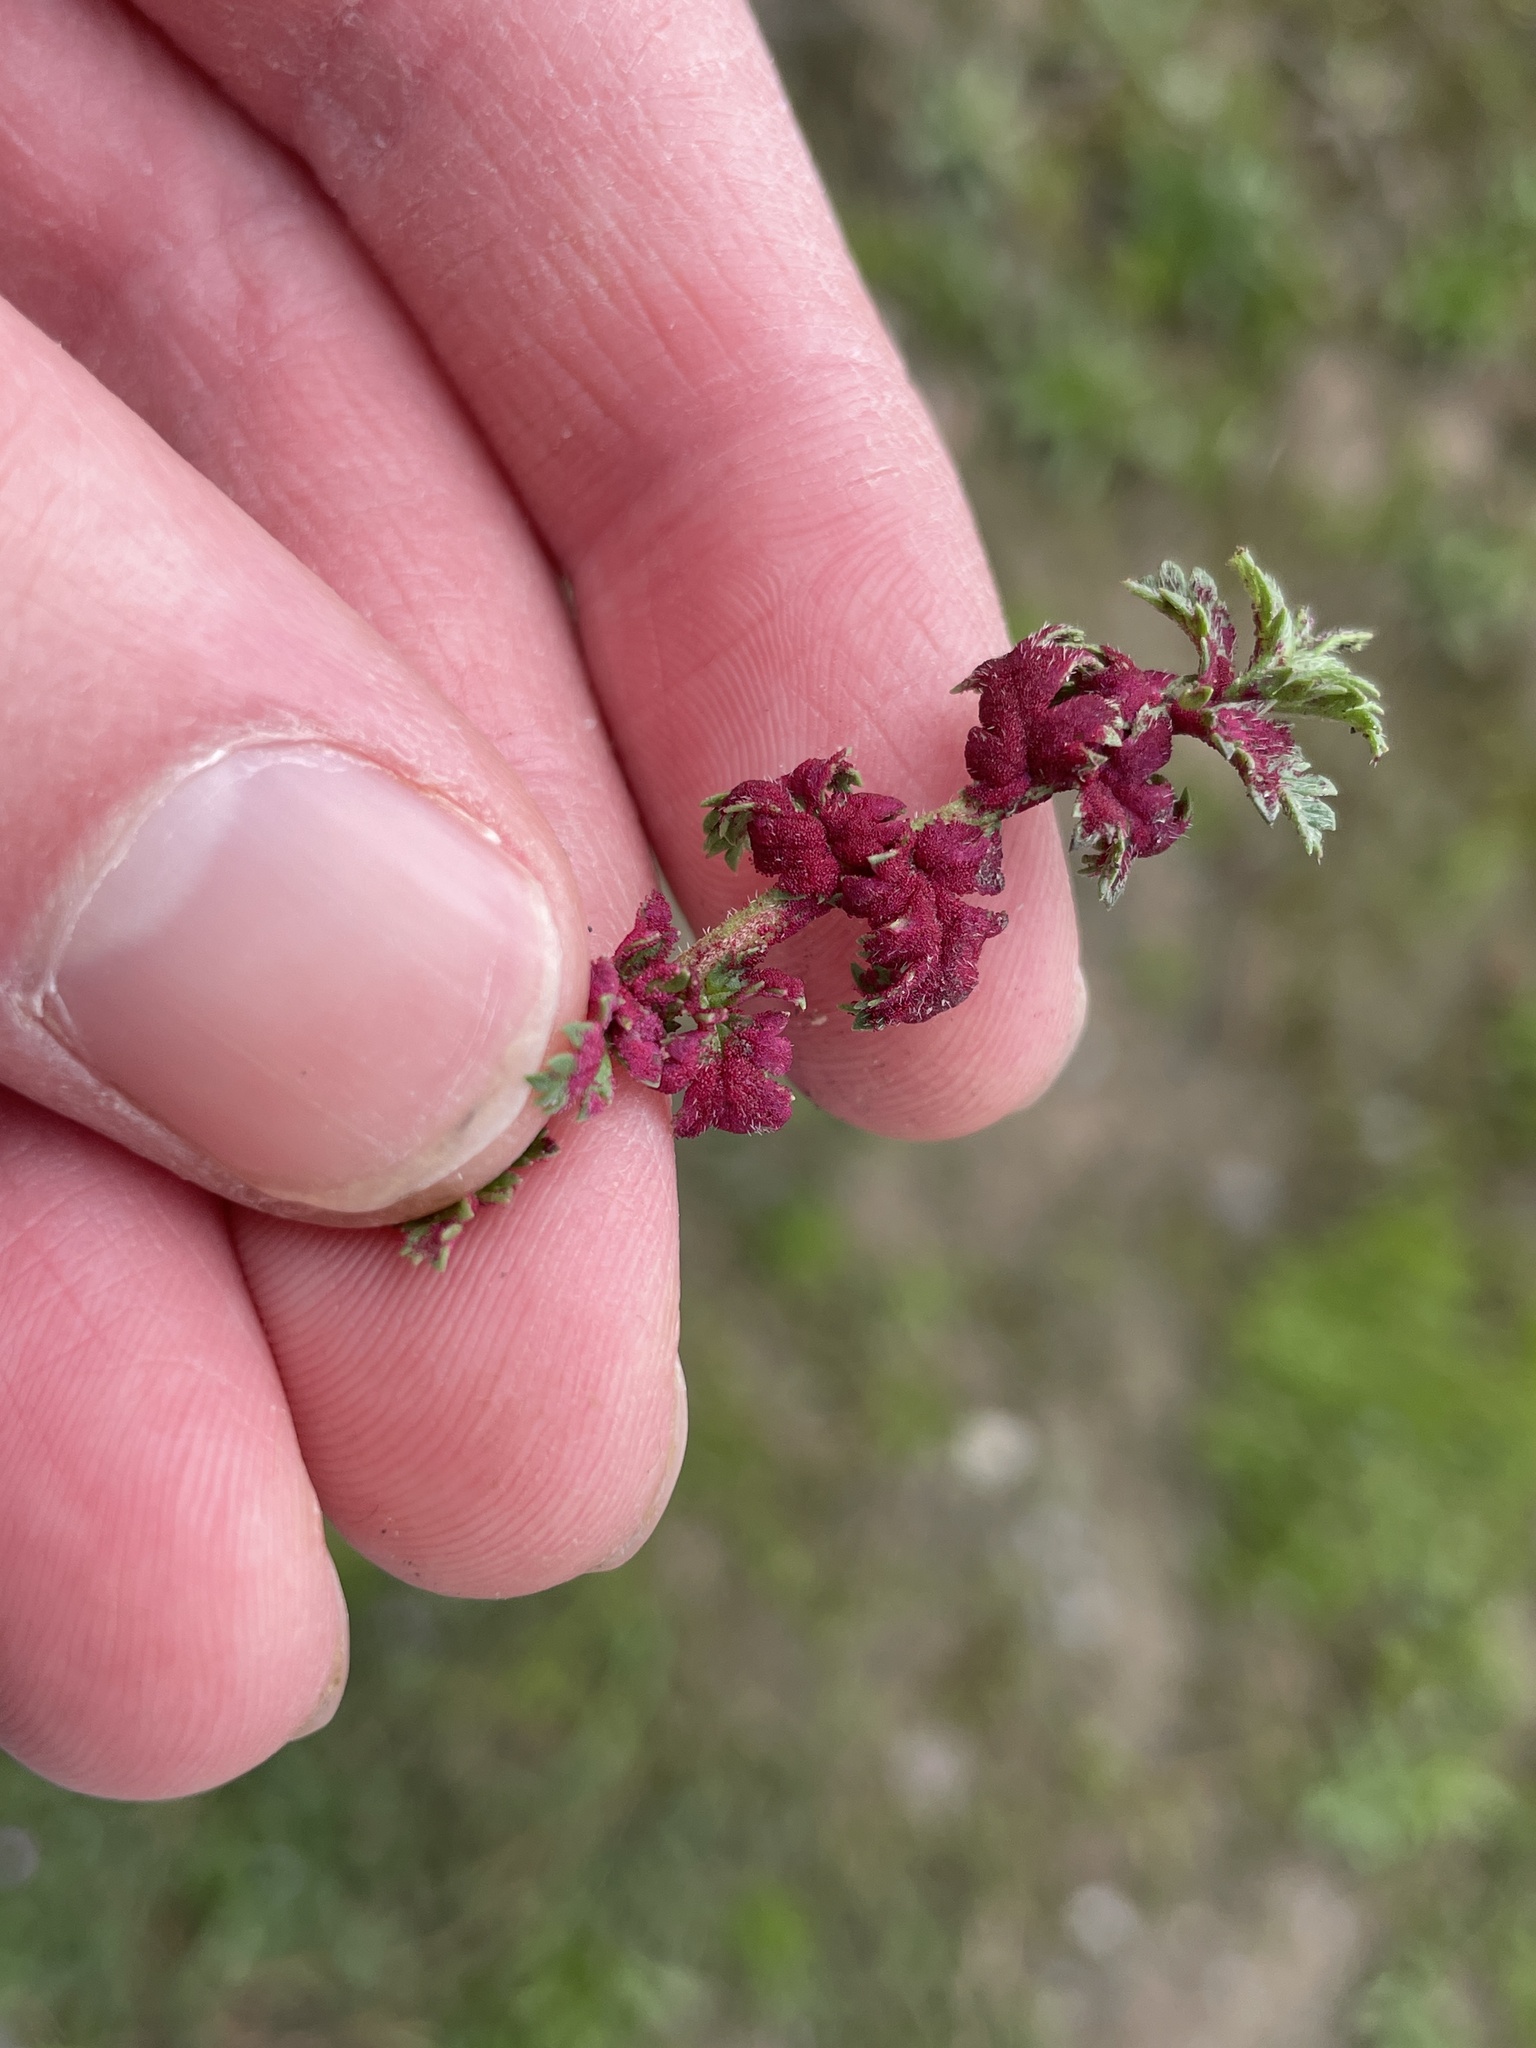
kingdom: Fungi
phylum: Chytridiomycota
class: Chytridiomycetes
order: Chytridiales
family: Synchytriaceae
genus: Synchytrium
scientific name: Synchytrium papillatum
